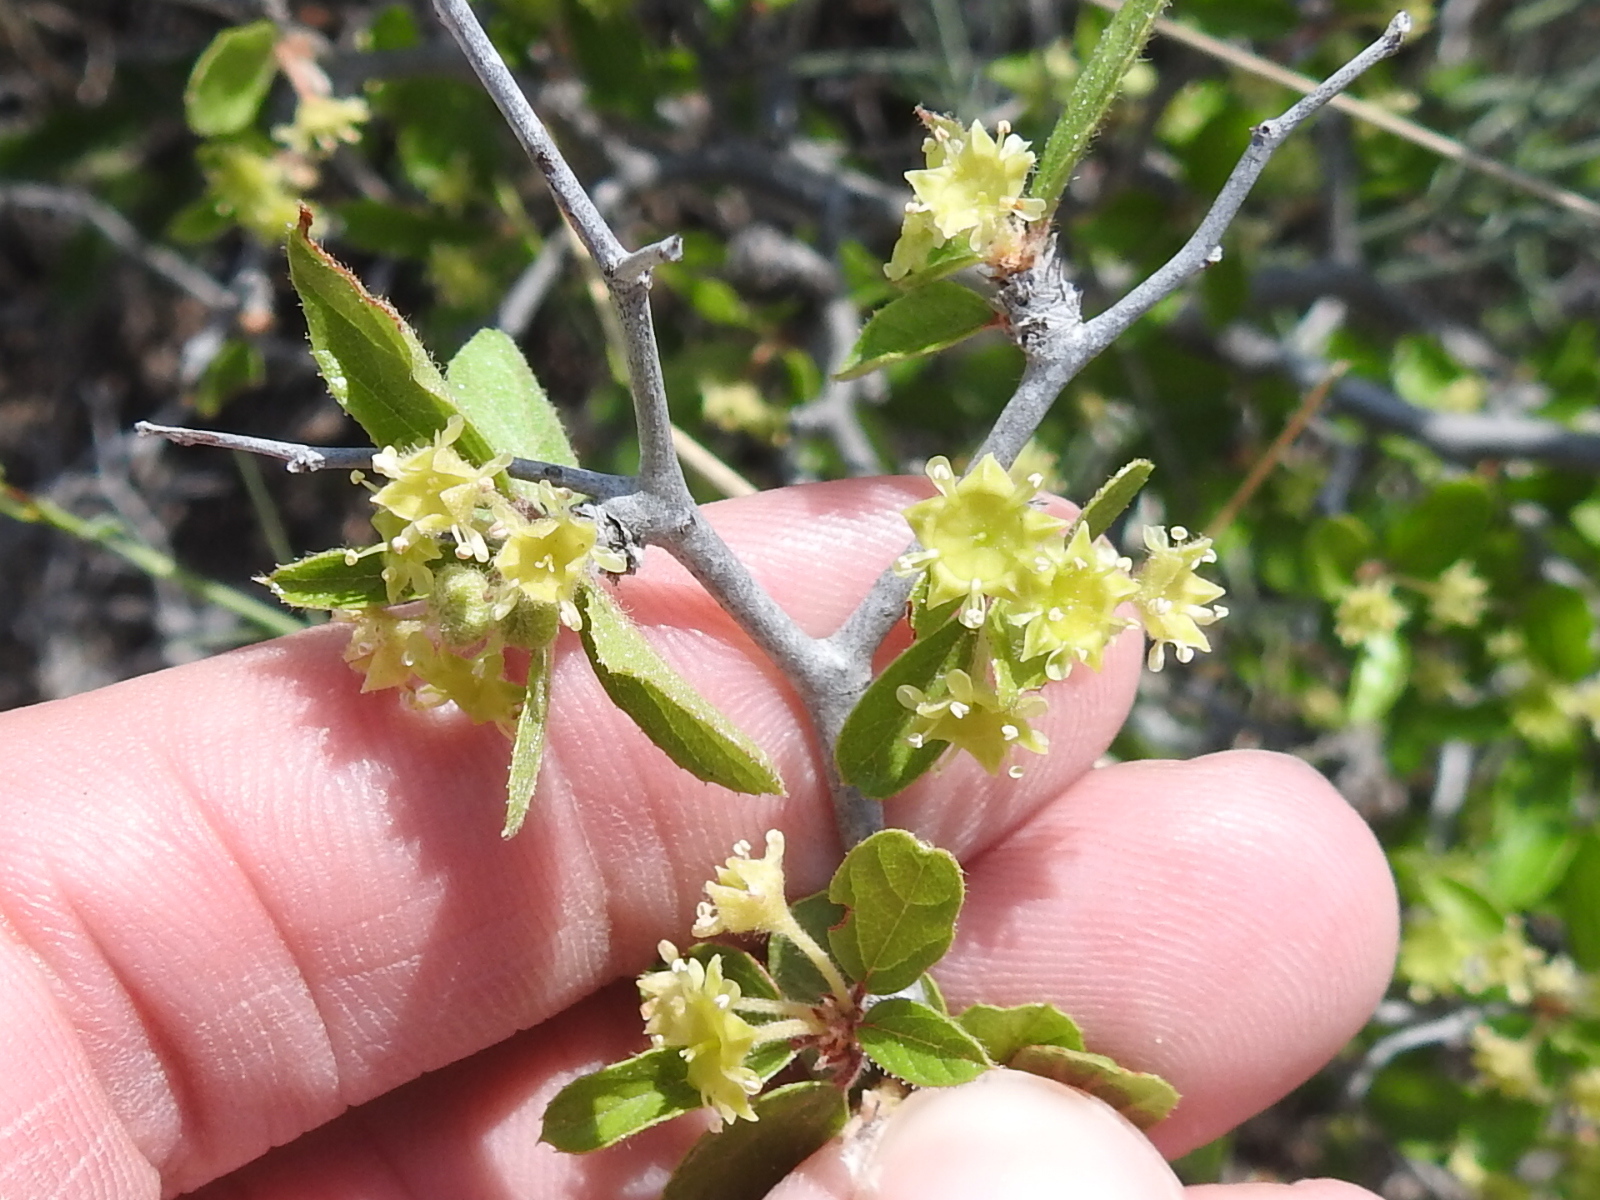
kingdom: Plantae
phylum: Tracheophyta
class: Magnoliopsida
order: Rosales
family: Rhamnaceae
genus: Colubrina
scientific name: Colubrina texensis
